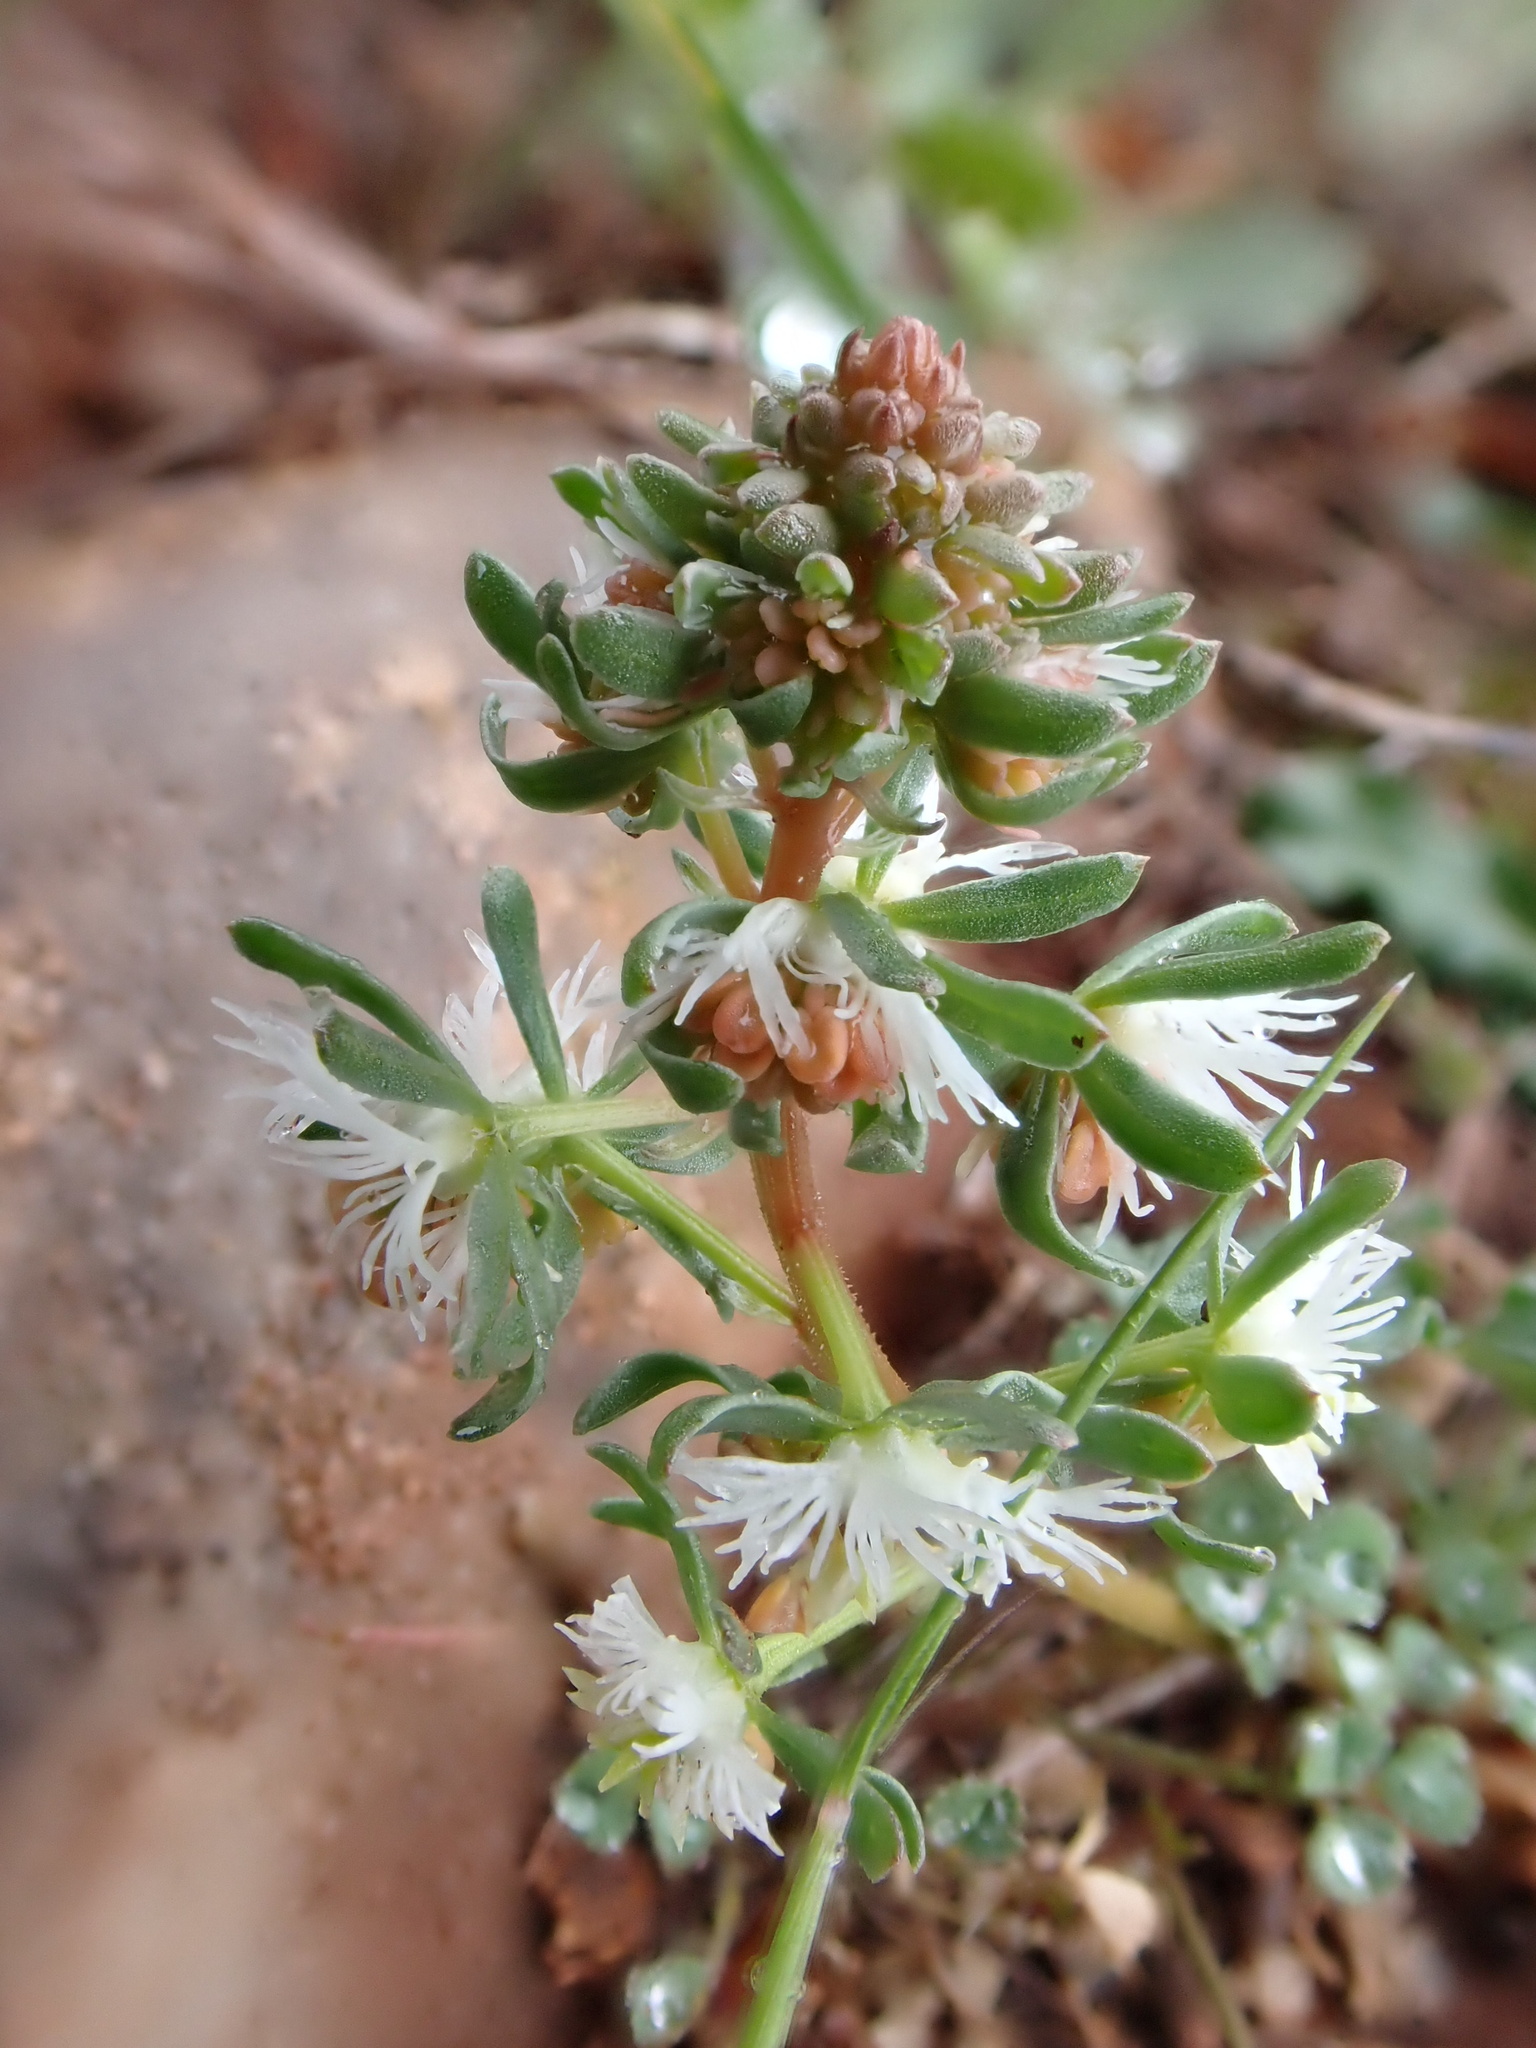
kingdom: Plantae
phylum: Tracheophyta
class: Magnoliopsida
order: Brassicales
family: Resedaceae
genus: Reseda
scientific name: Reseda phyteuma
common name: Corn mignonette
